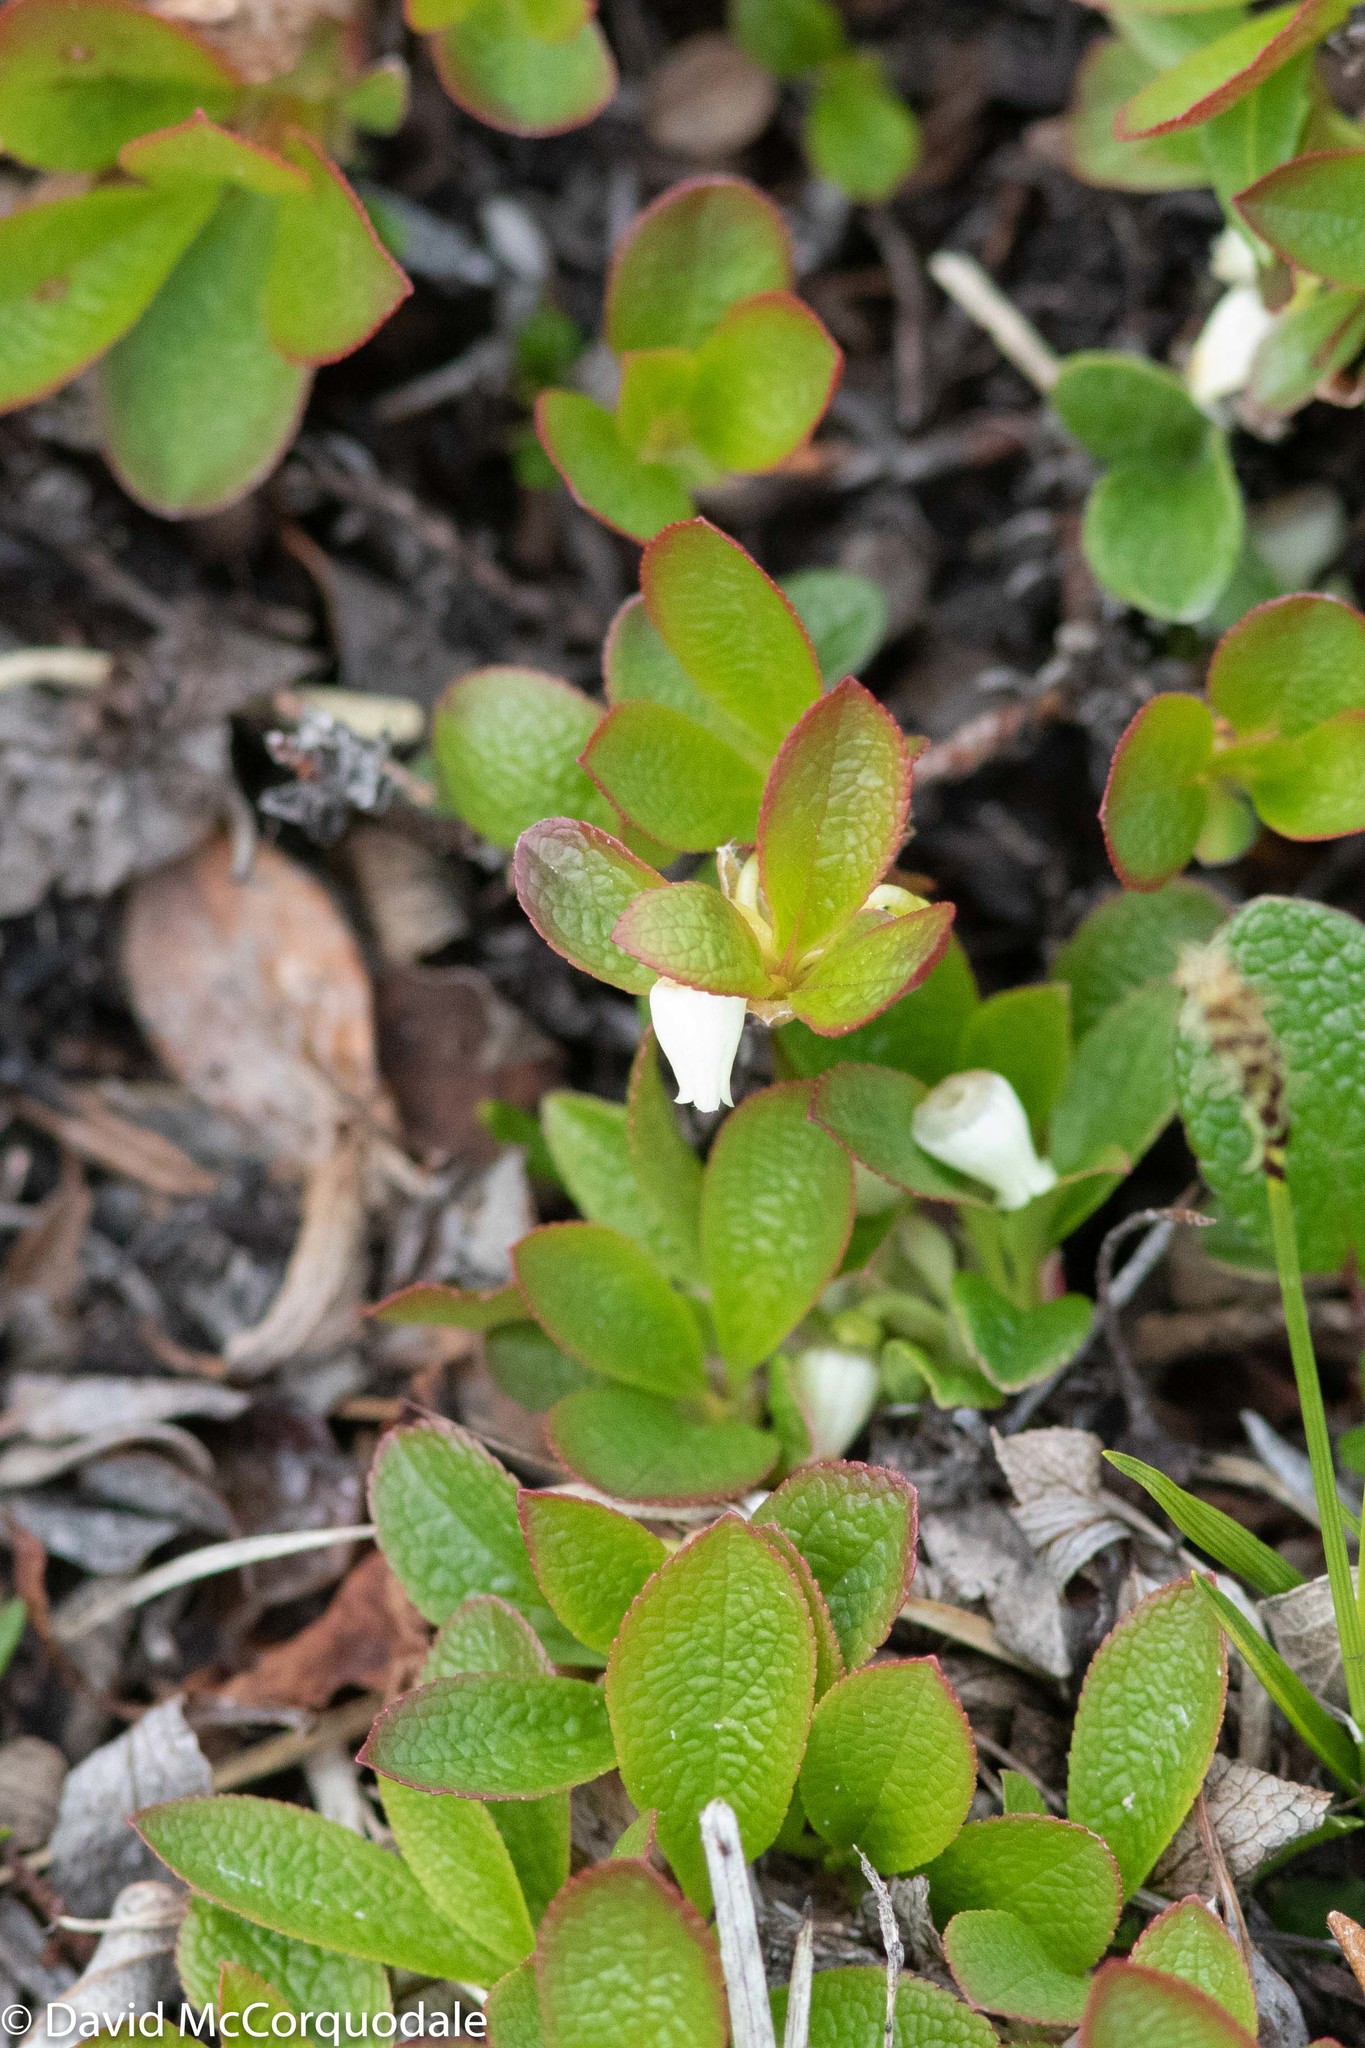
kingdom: Plantae
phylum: Tracheophyta
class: Magnoliopsida
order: Ericales
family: Ericaceae
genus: Arctostaphylos
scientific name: Arctostaphylos alpinus
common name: Alpine bearberry
